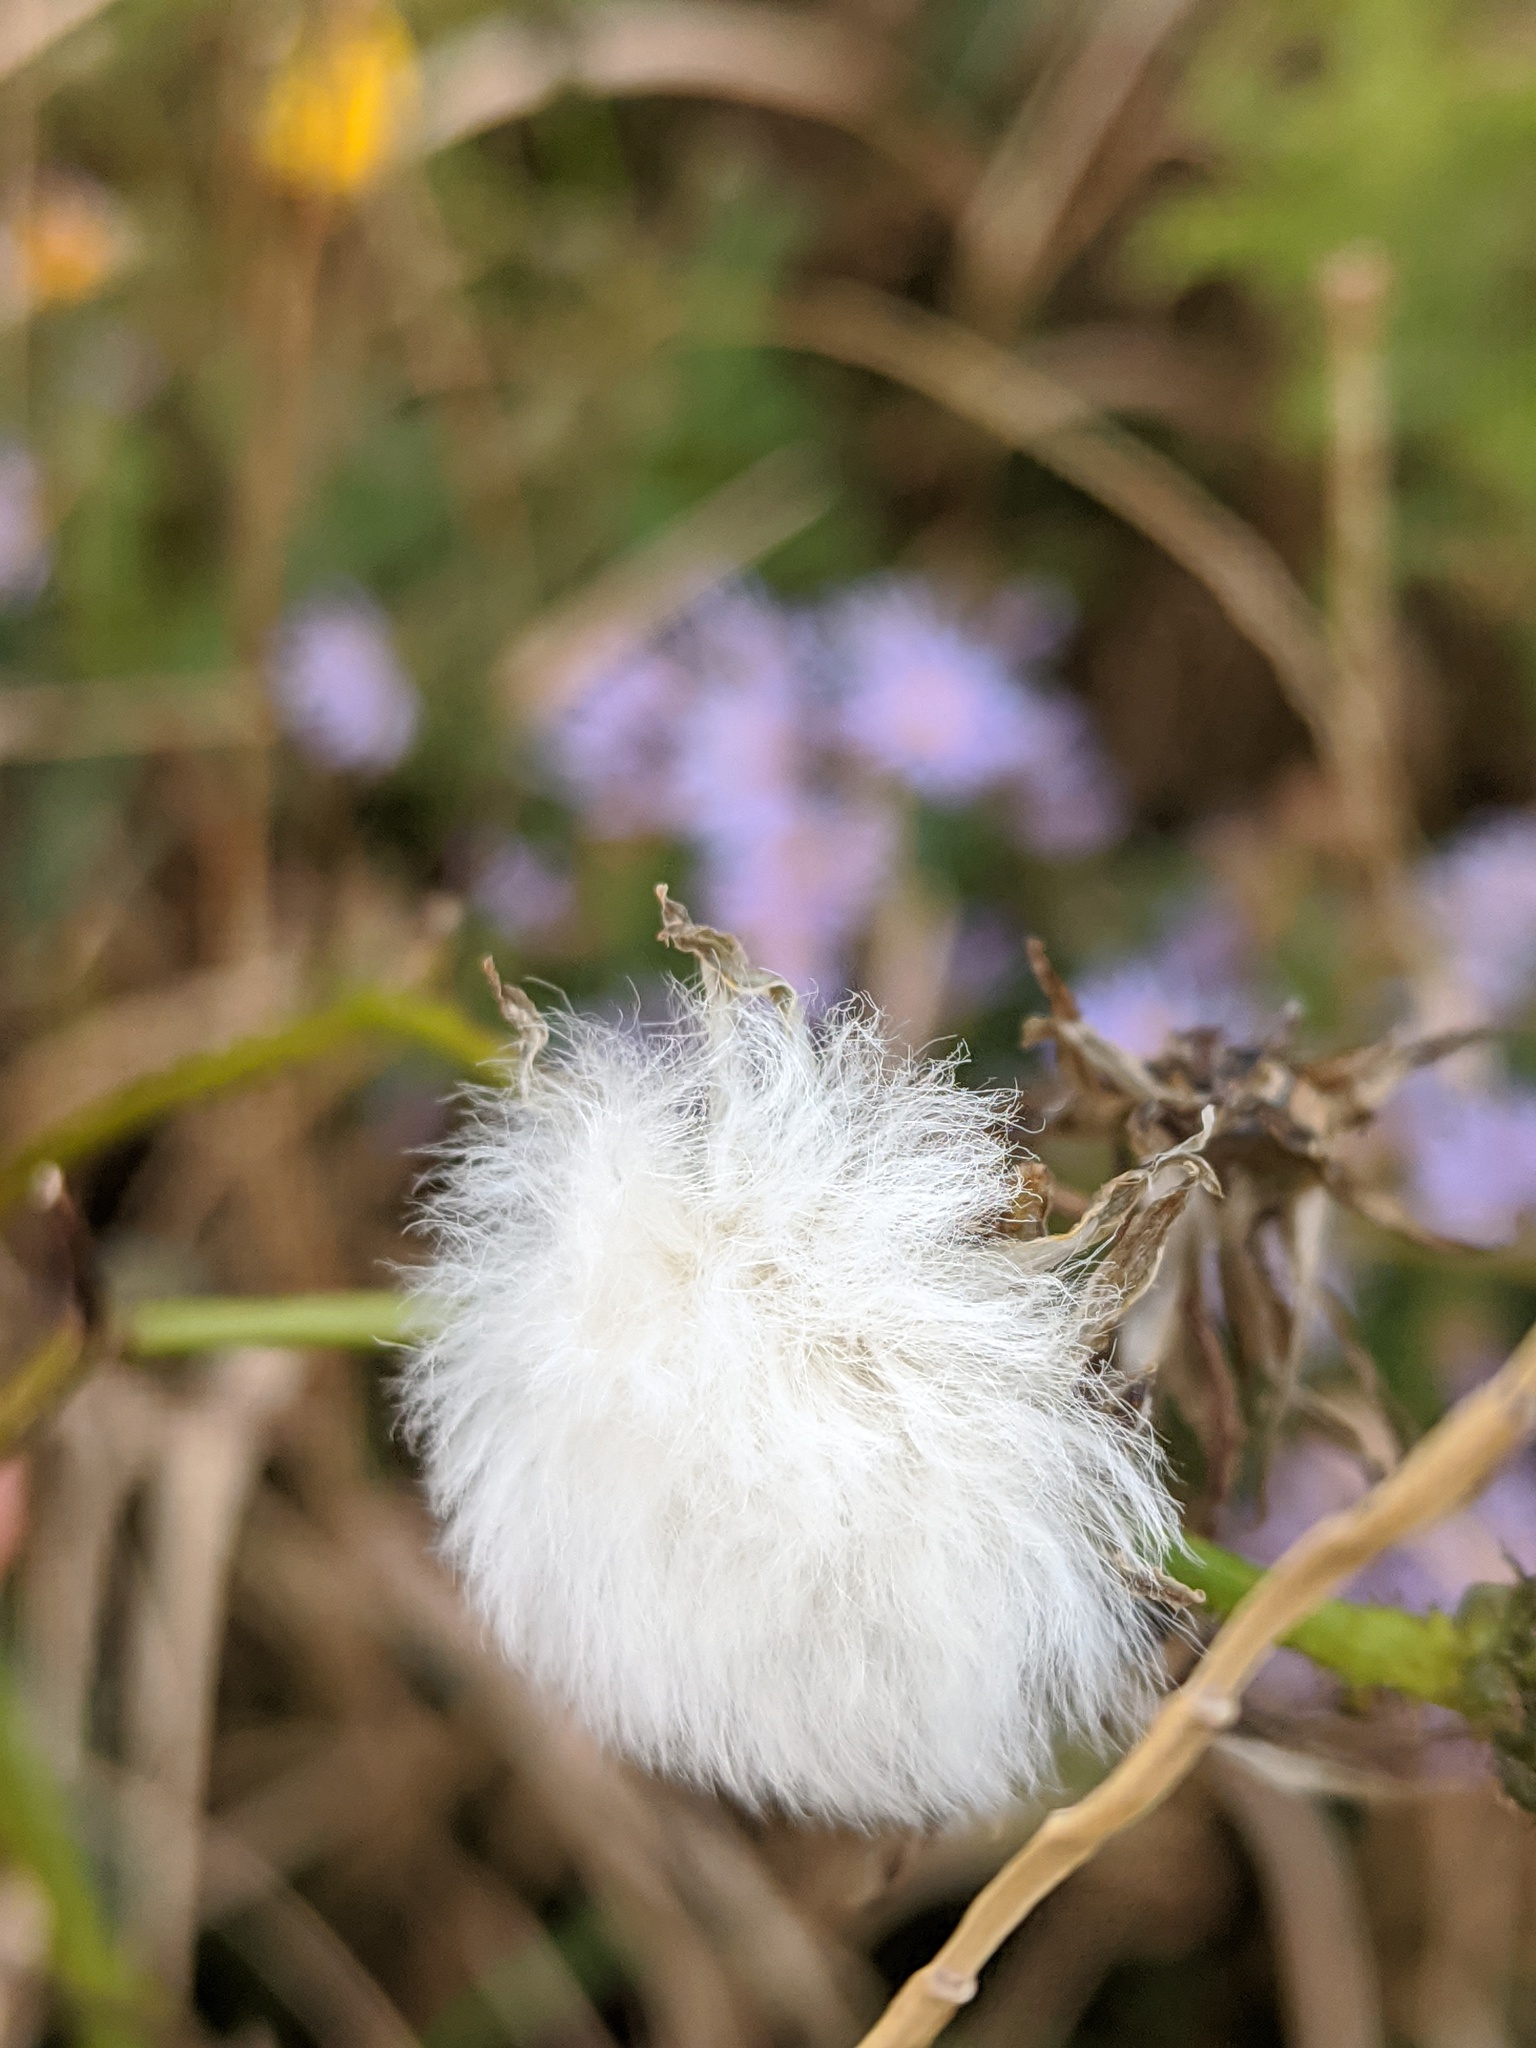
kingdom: Plantae
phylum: Tracheophyta
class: Magnoliopsida
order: Asterales
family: Asteraceae
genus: Sonchus
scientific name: Sonchus arvensis
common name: Perennial sow-thistle
